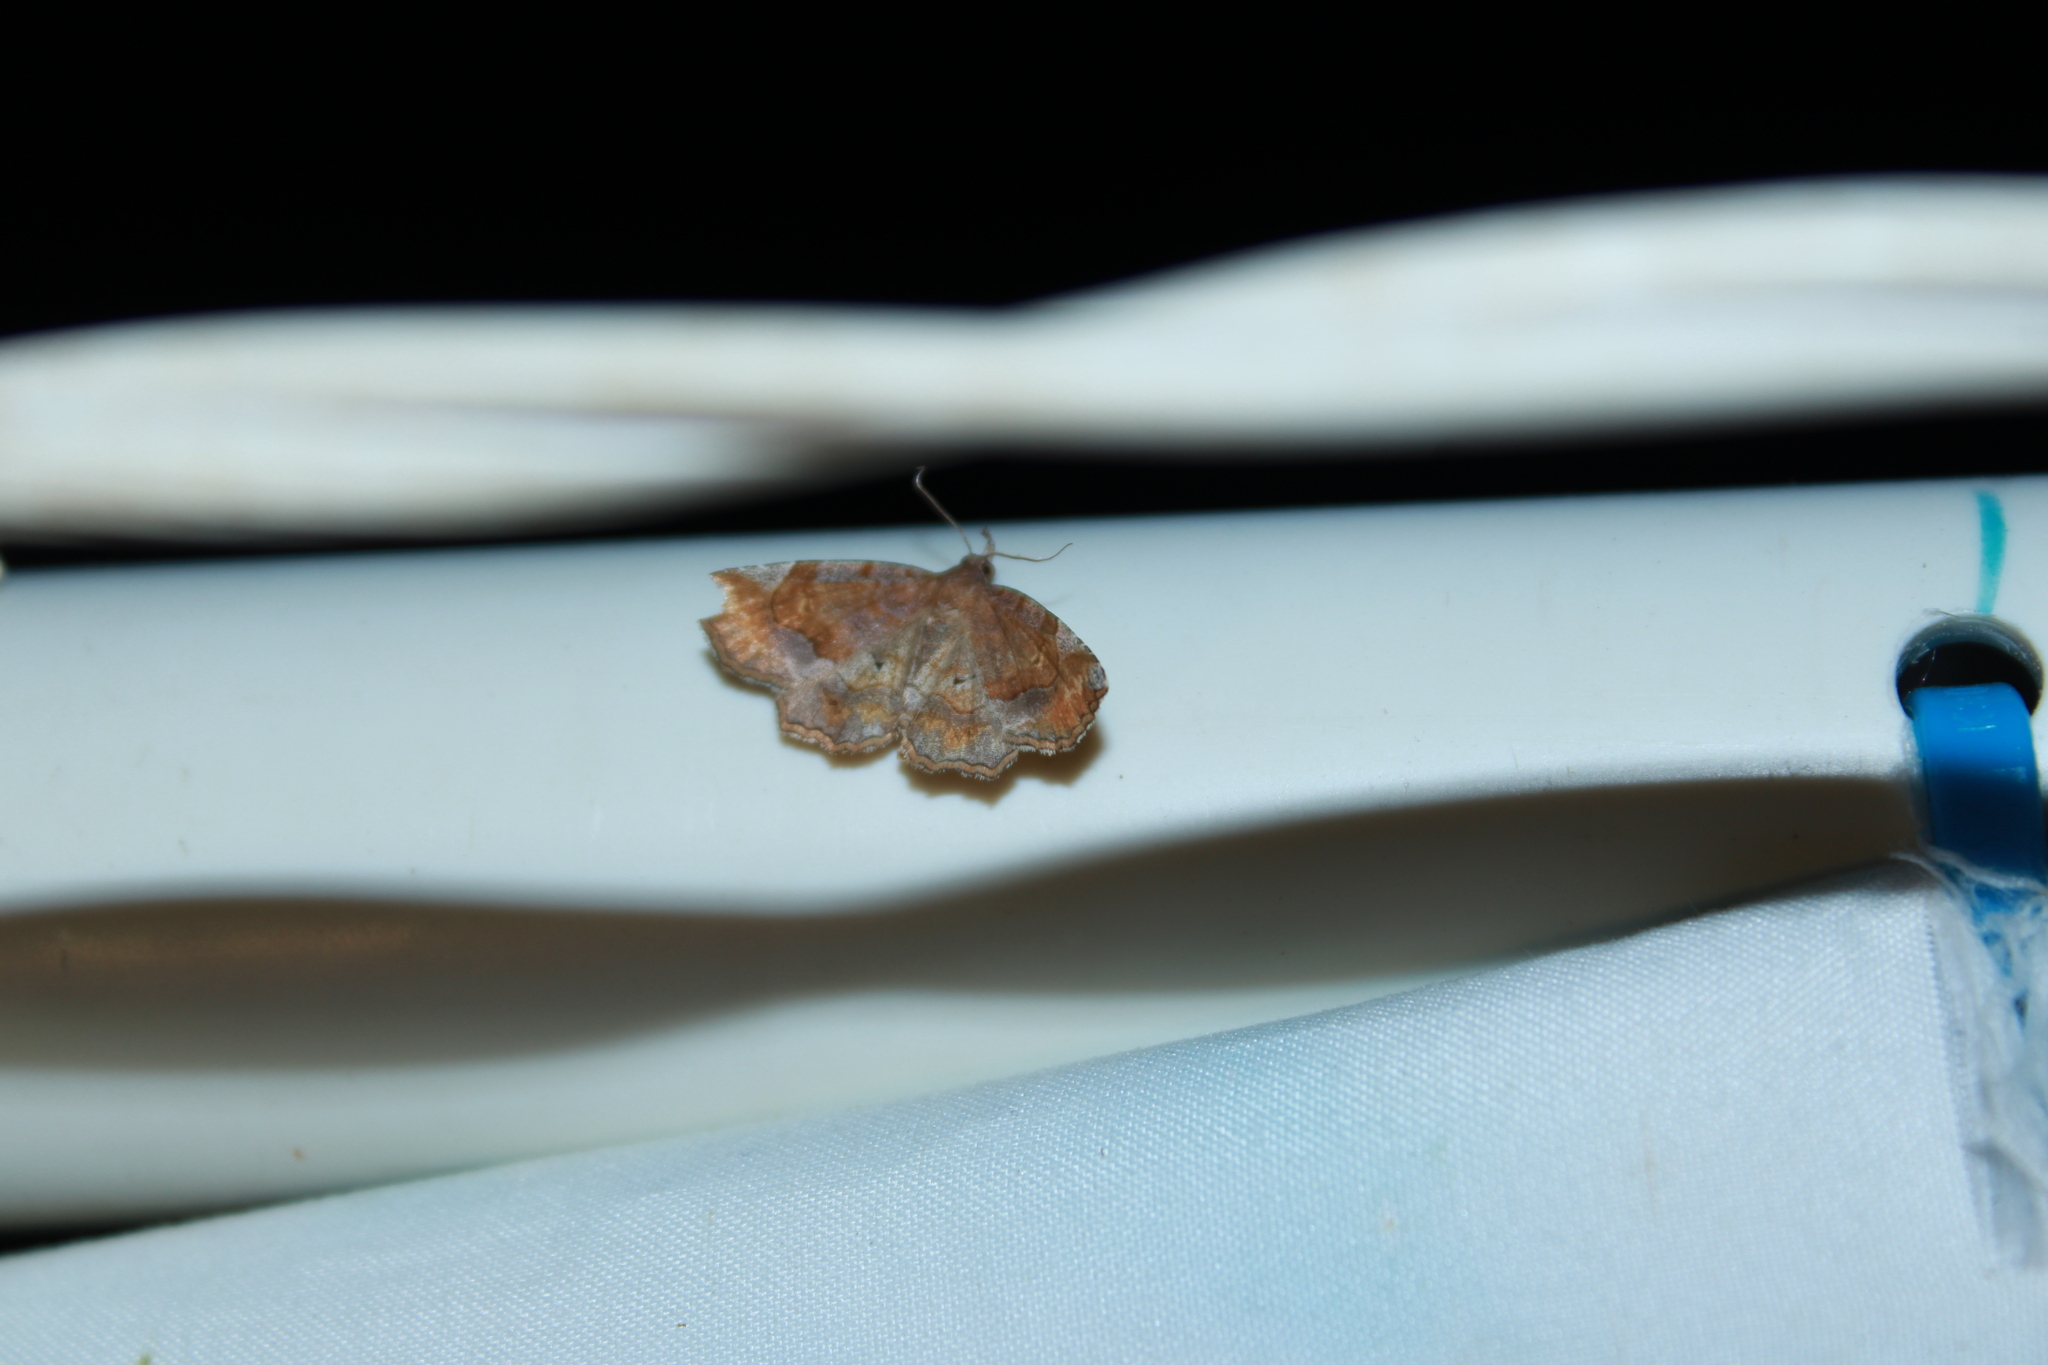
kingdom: Animalia
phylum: Arthropoda
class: Insecta
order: Lepidoptera
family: Erebidae
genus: Pangrapta
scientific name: Pangrapta decoralis
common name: Decorated owlet
